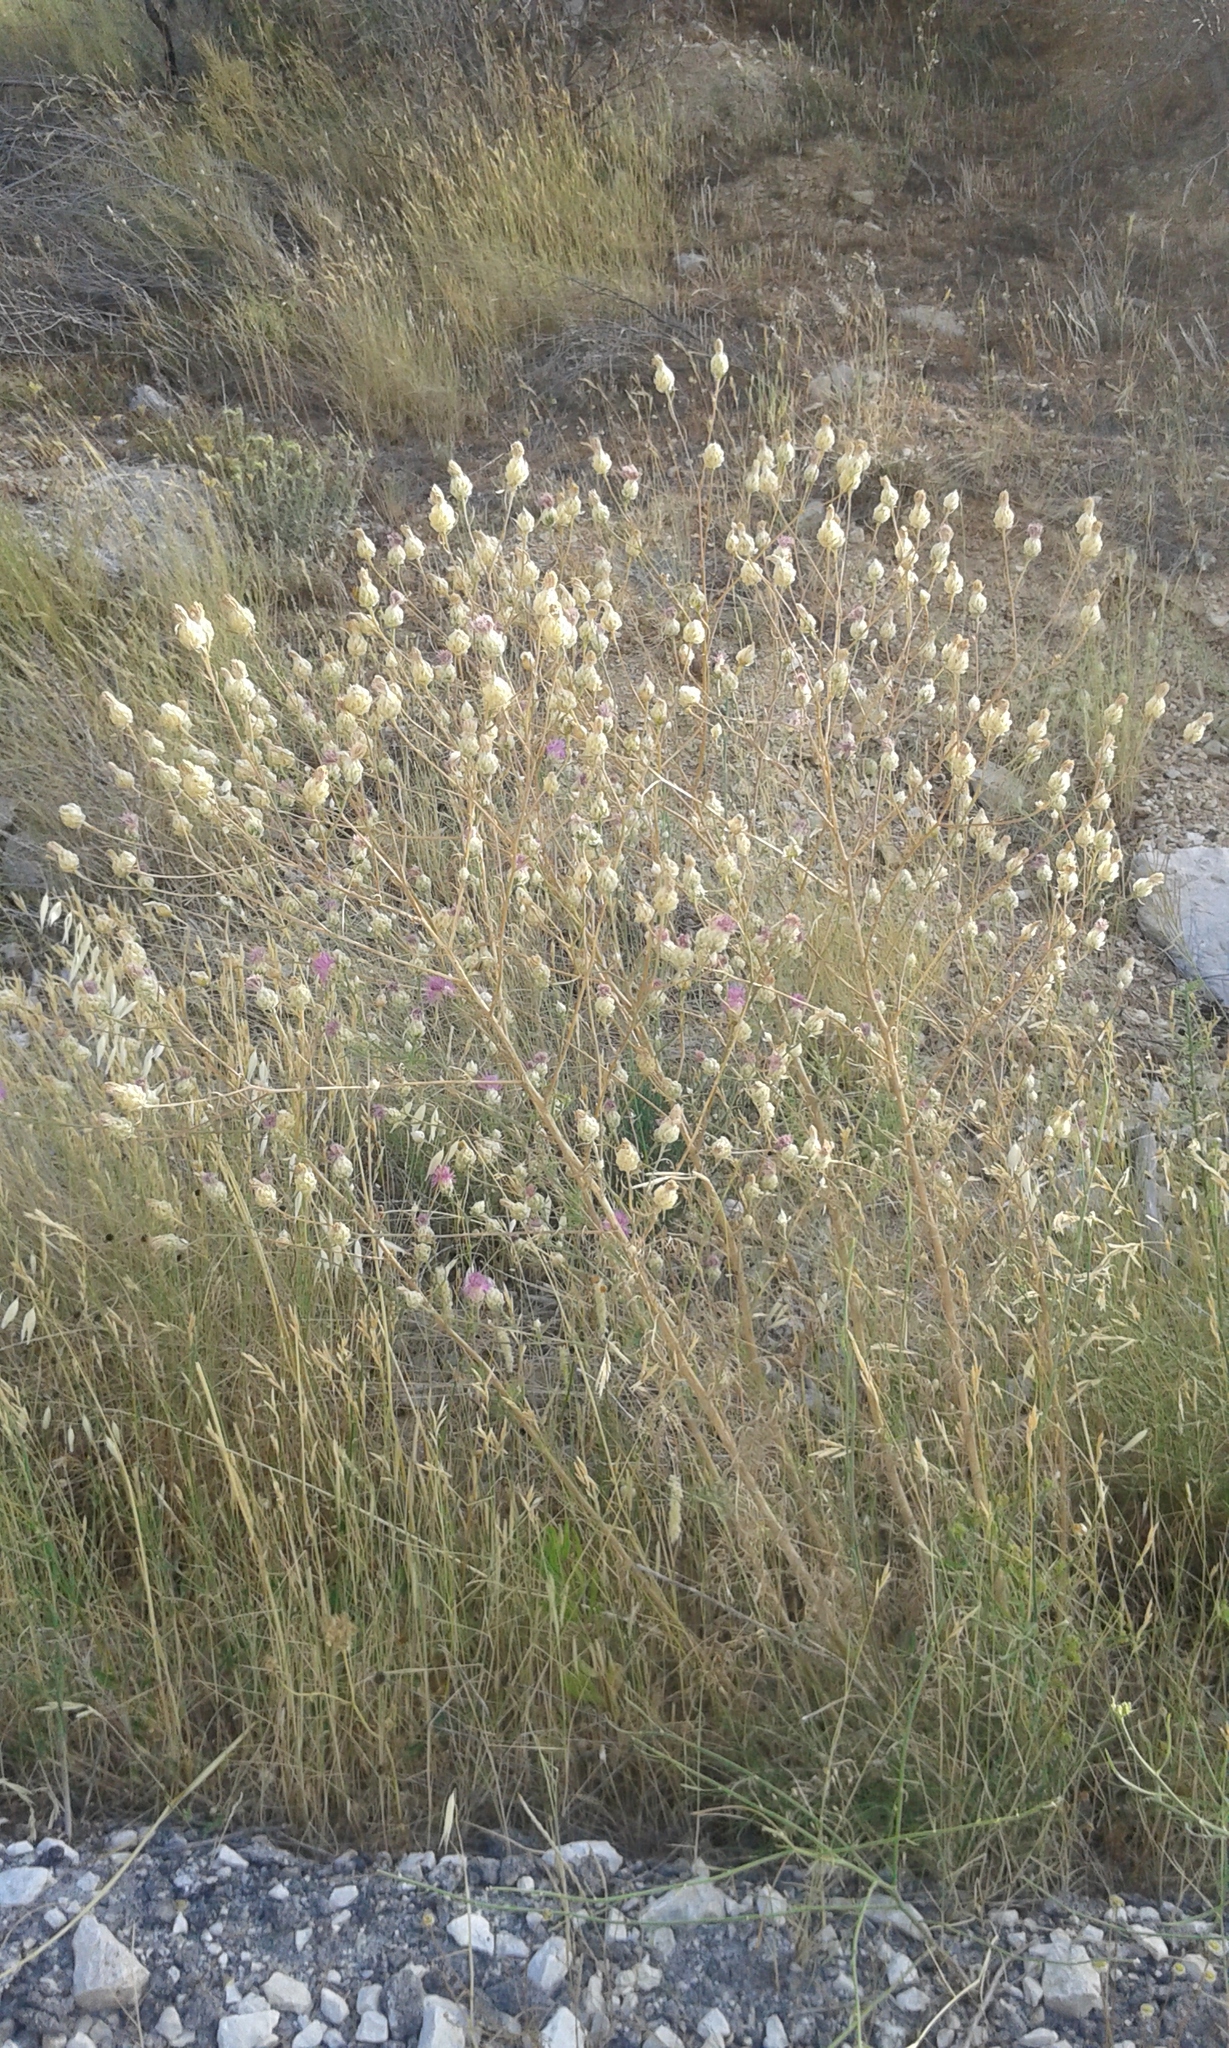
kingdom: Plantae
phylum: Tracheophyta
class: Magnoliopsida
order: Asterales
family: Asteraceae
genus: Centaurea
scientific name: Centaurea deusta
